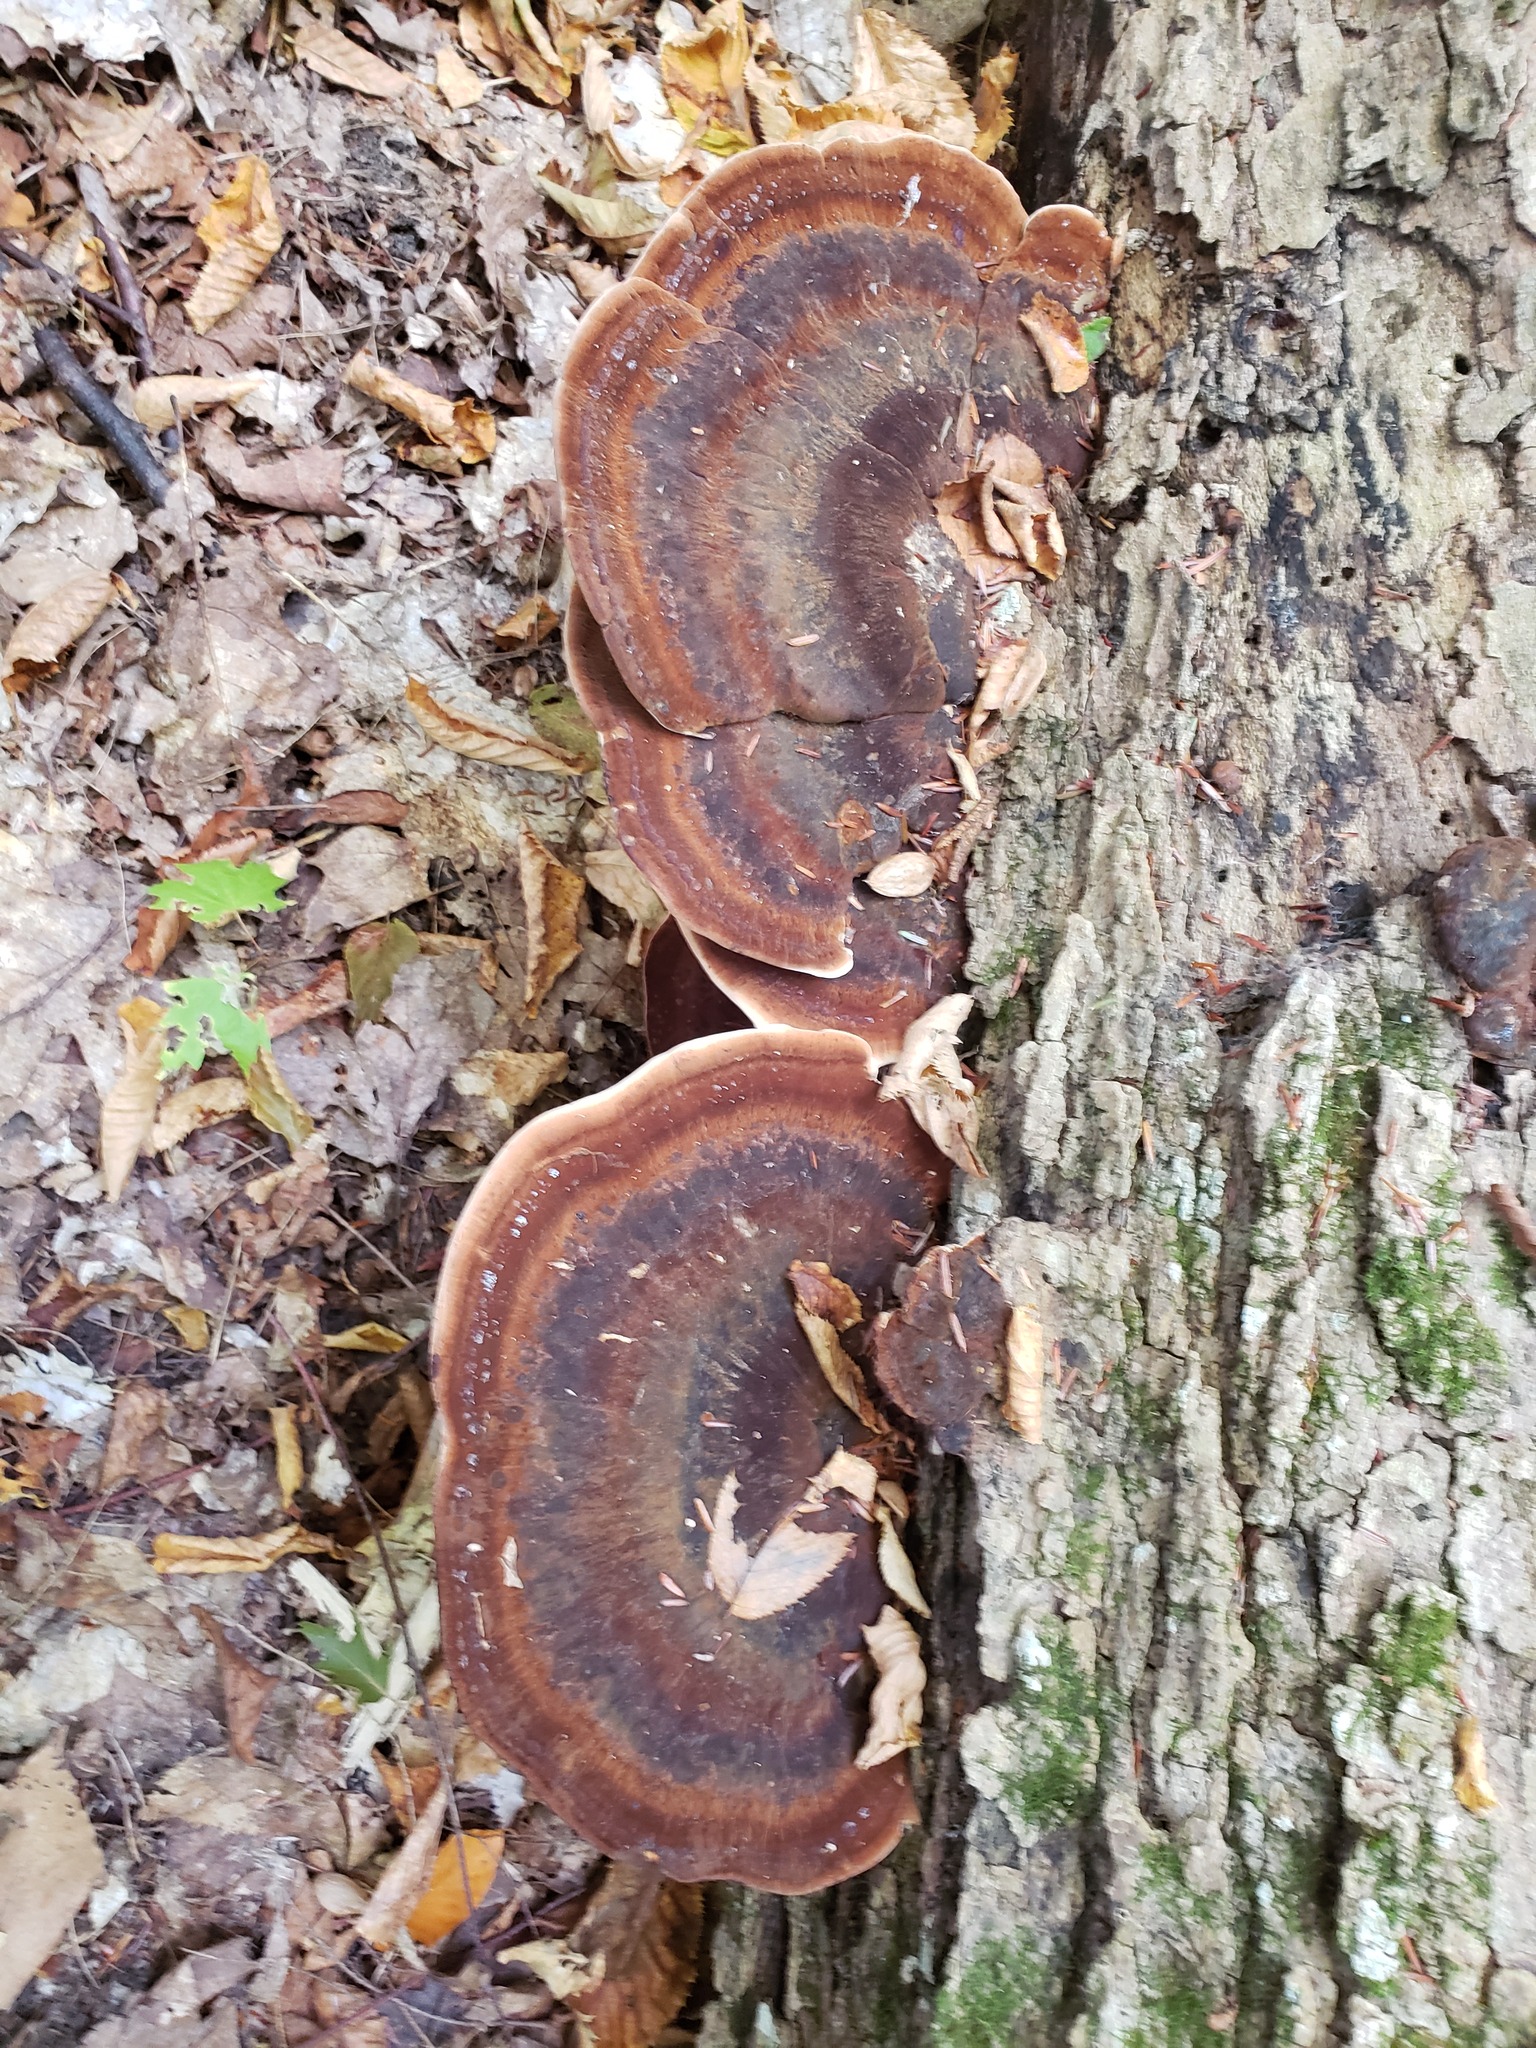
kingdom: Fungi
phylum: Basidiomycota
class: Agaricomycetes
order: Polyporales
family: Ischnodermataceae
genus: Ischnoderma
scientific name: Ischnoderma resinosum
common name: Resinous polypore
